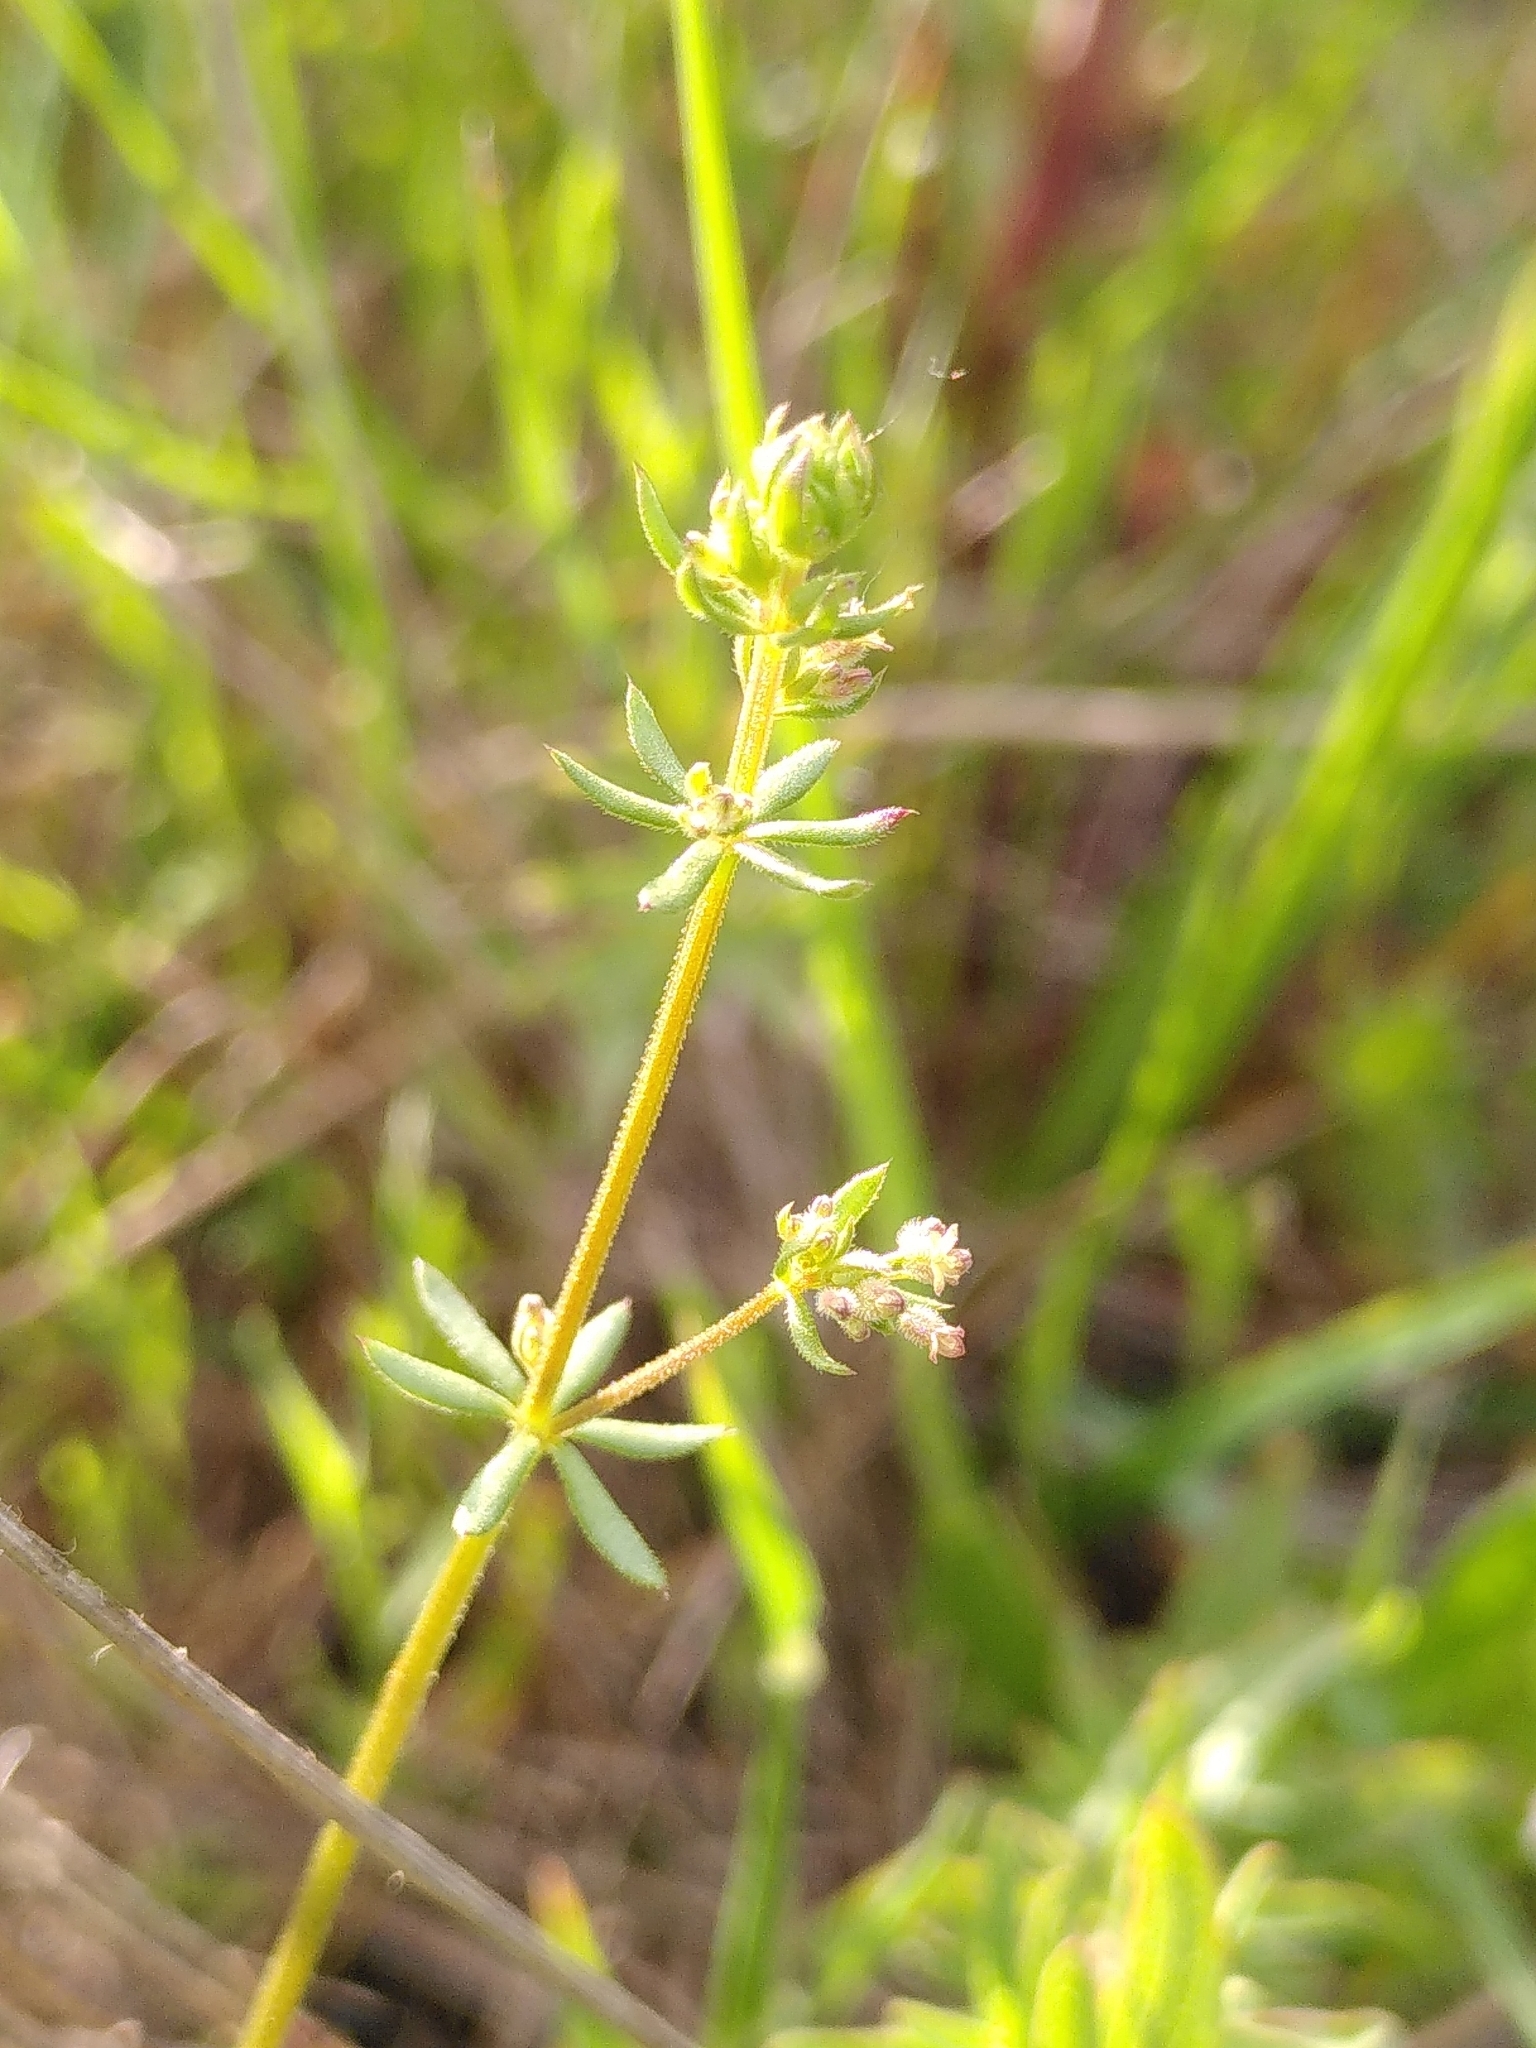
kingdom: Plantae
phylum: Tracheophyta
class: Magnoliopsida
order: Gentianales
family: Rubiaceae
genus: Galium
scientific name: Galium parisiense
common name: Wall bedstraw
